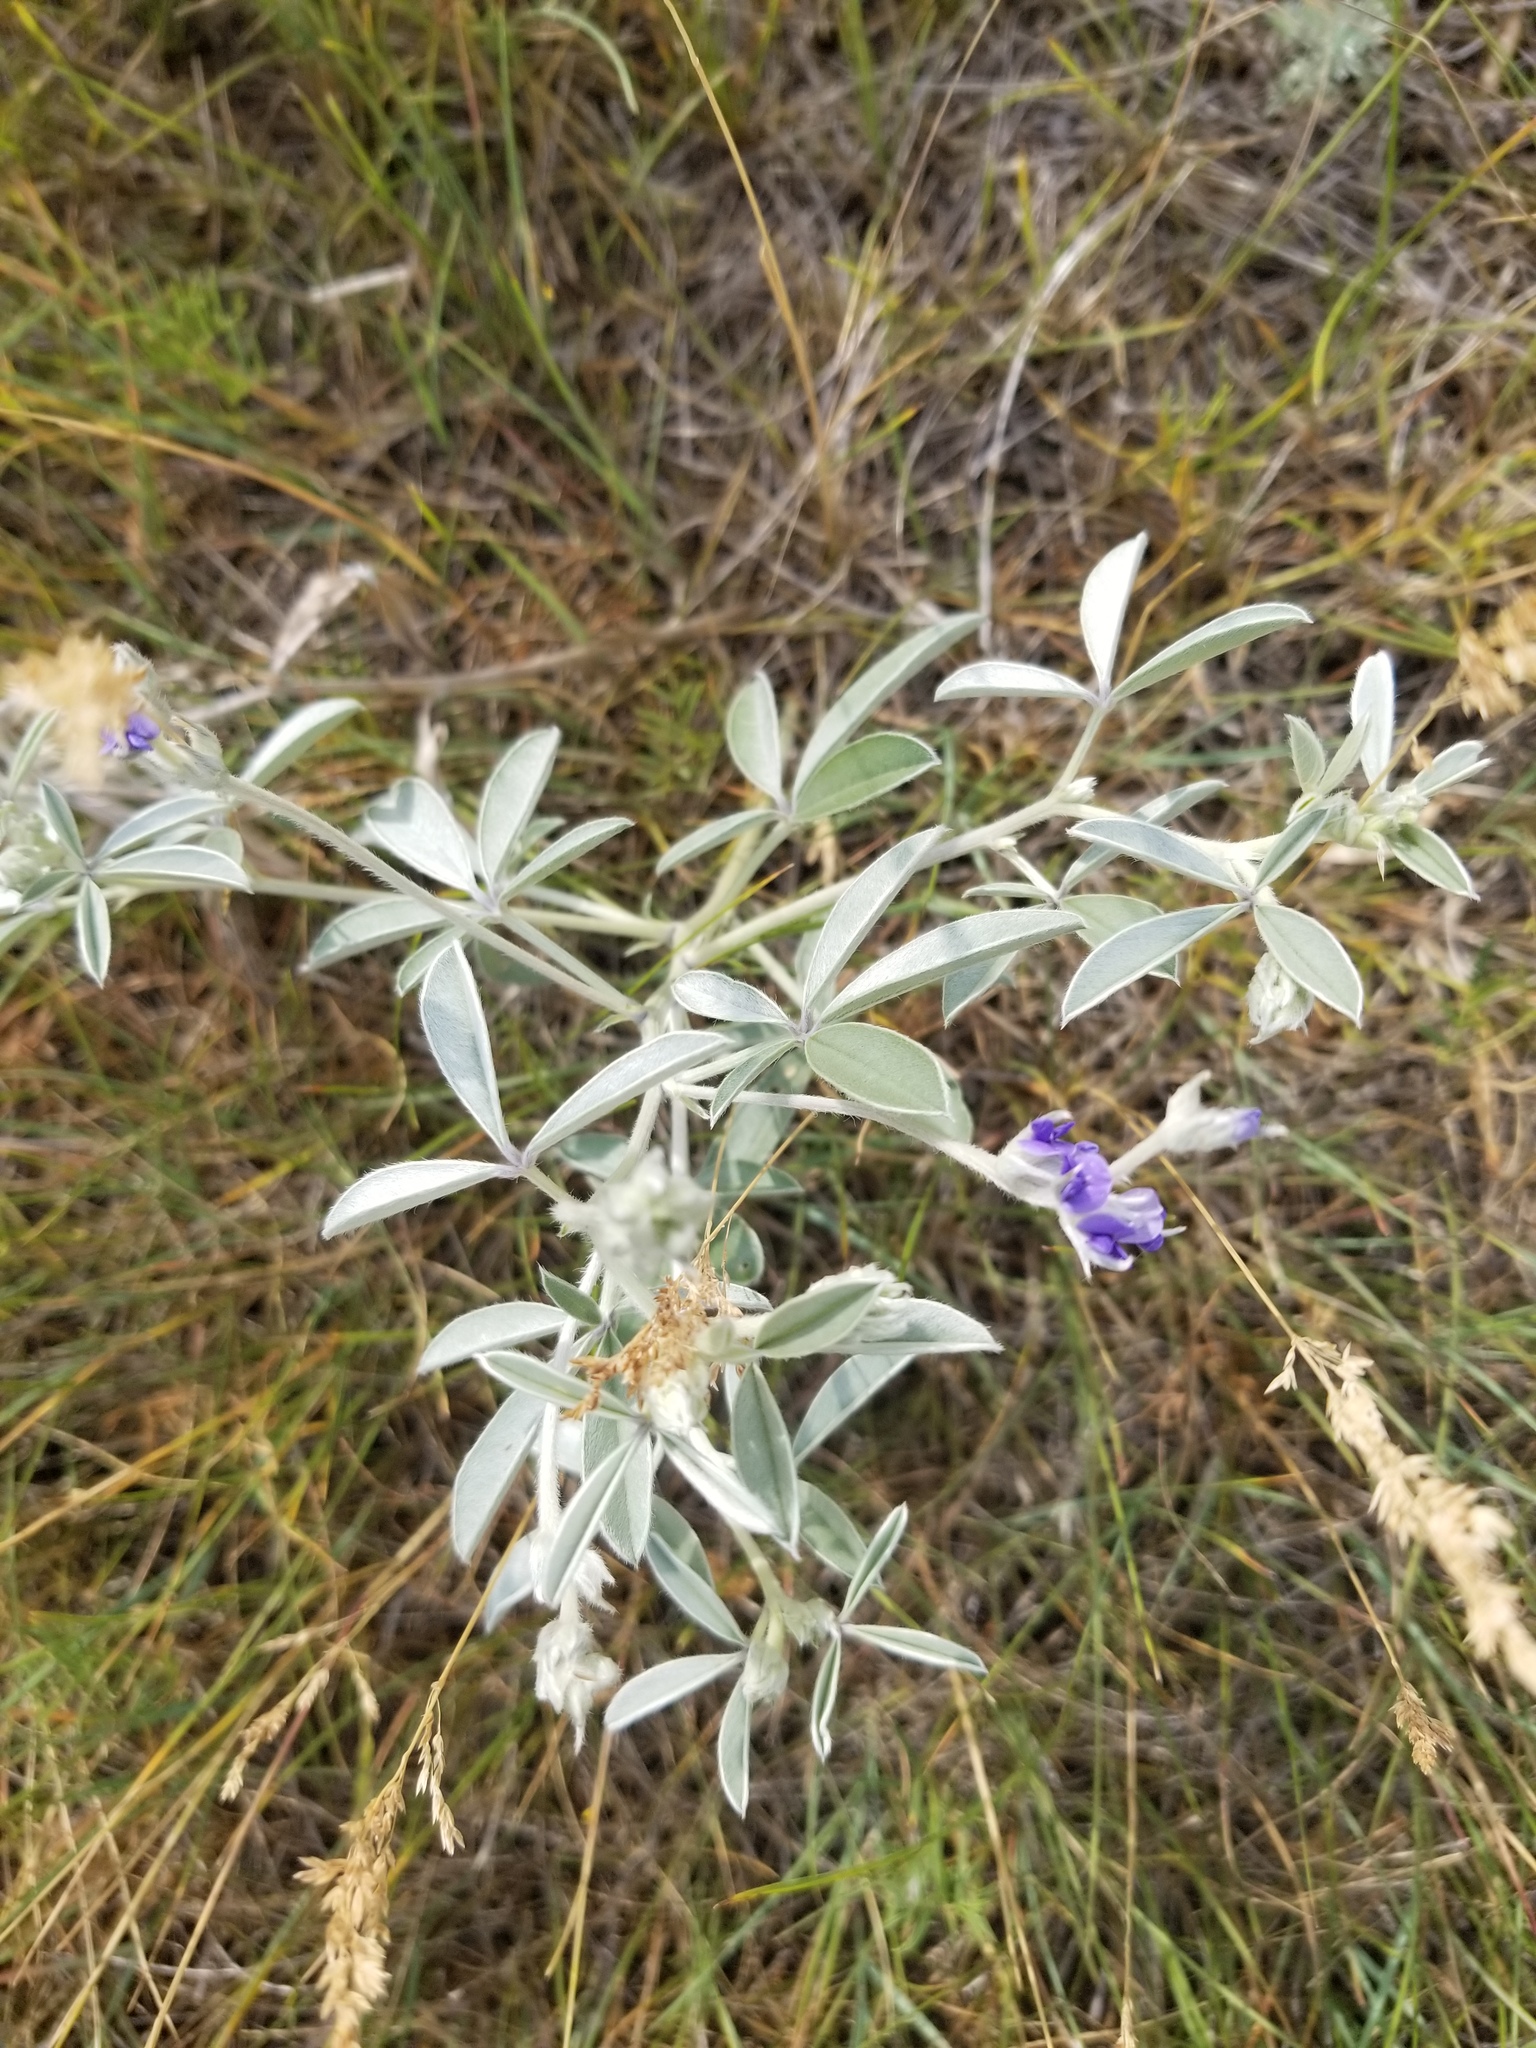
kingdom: Plantae
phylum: Tracheophyta
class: Magnoliopsida
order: Fabales
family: Fabaceae
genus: Pediomelum
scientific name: Pediomelum argophyllum
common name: Silver-leaved indian breadroot
